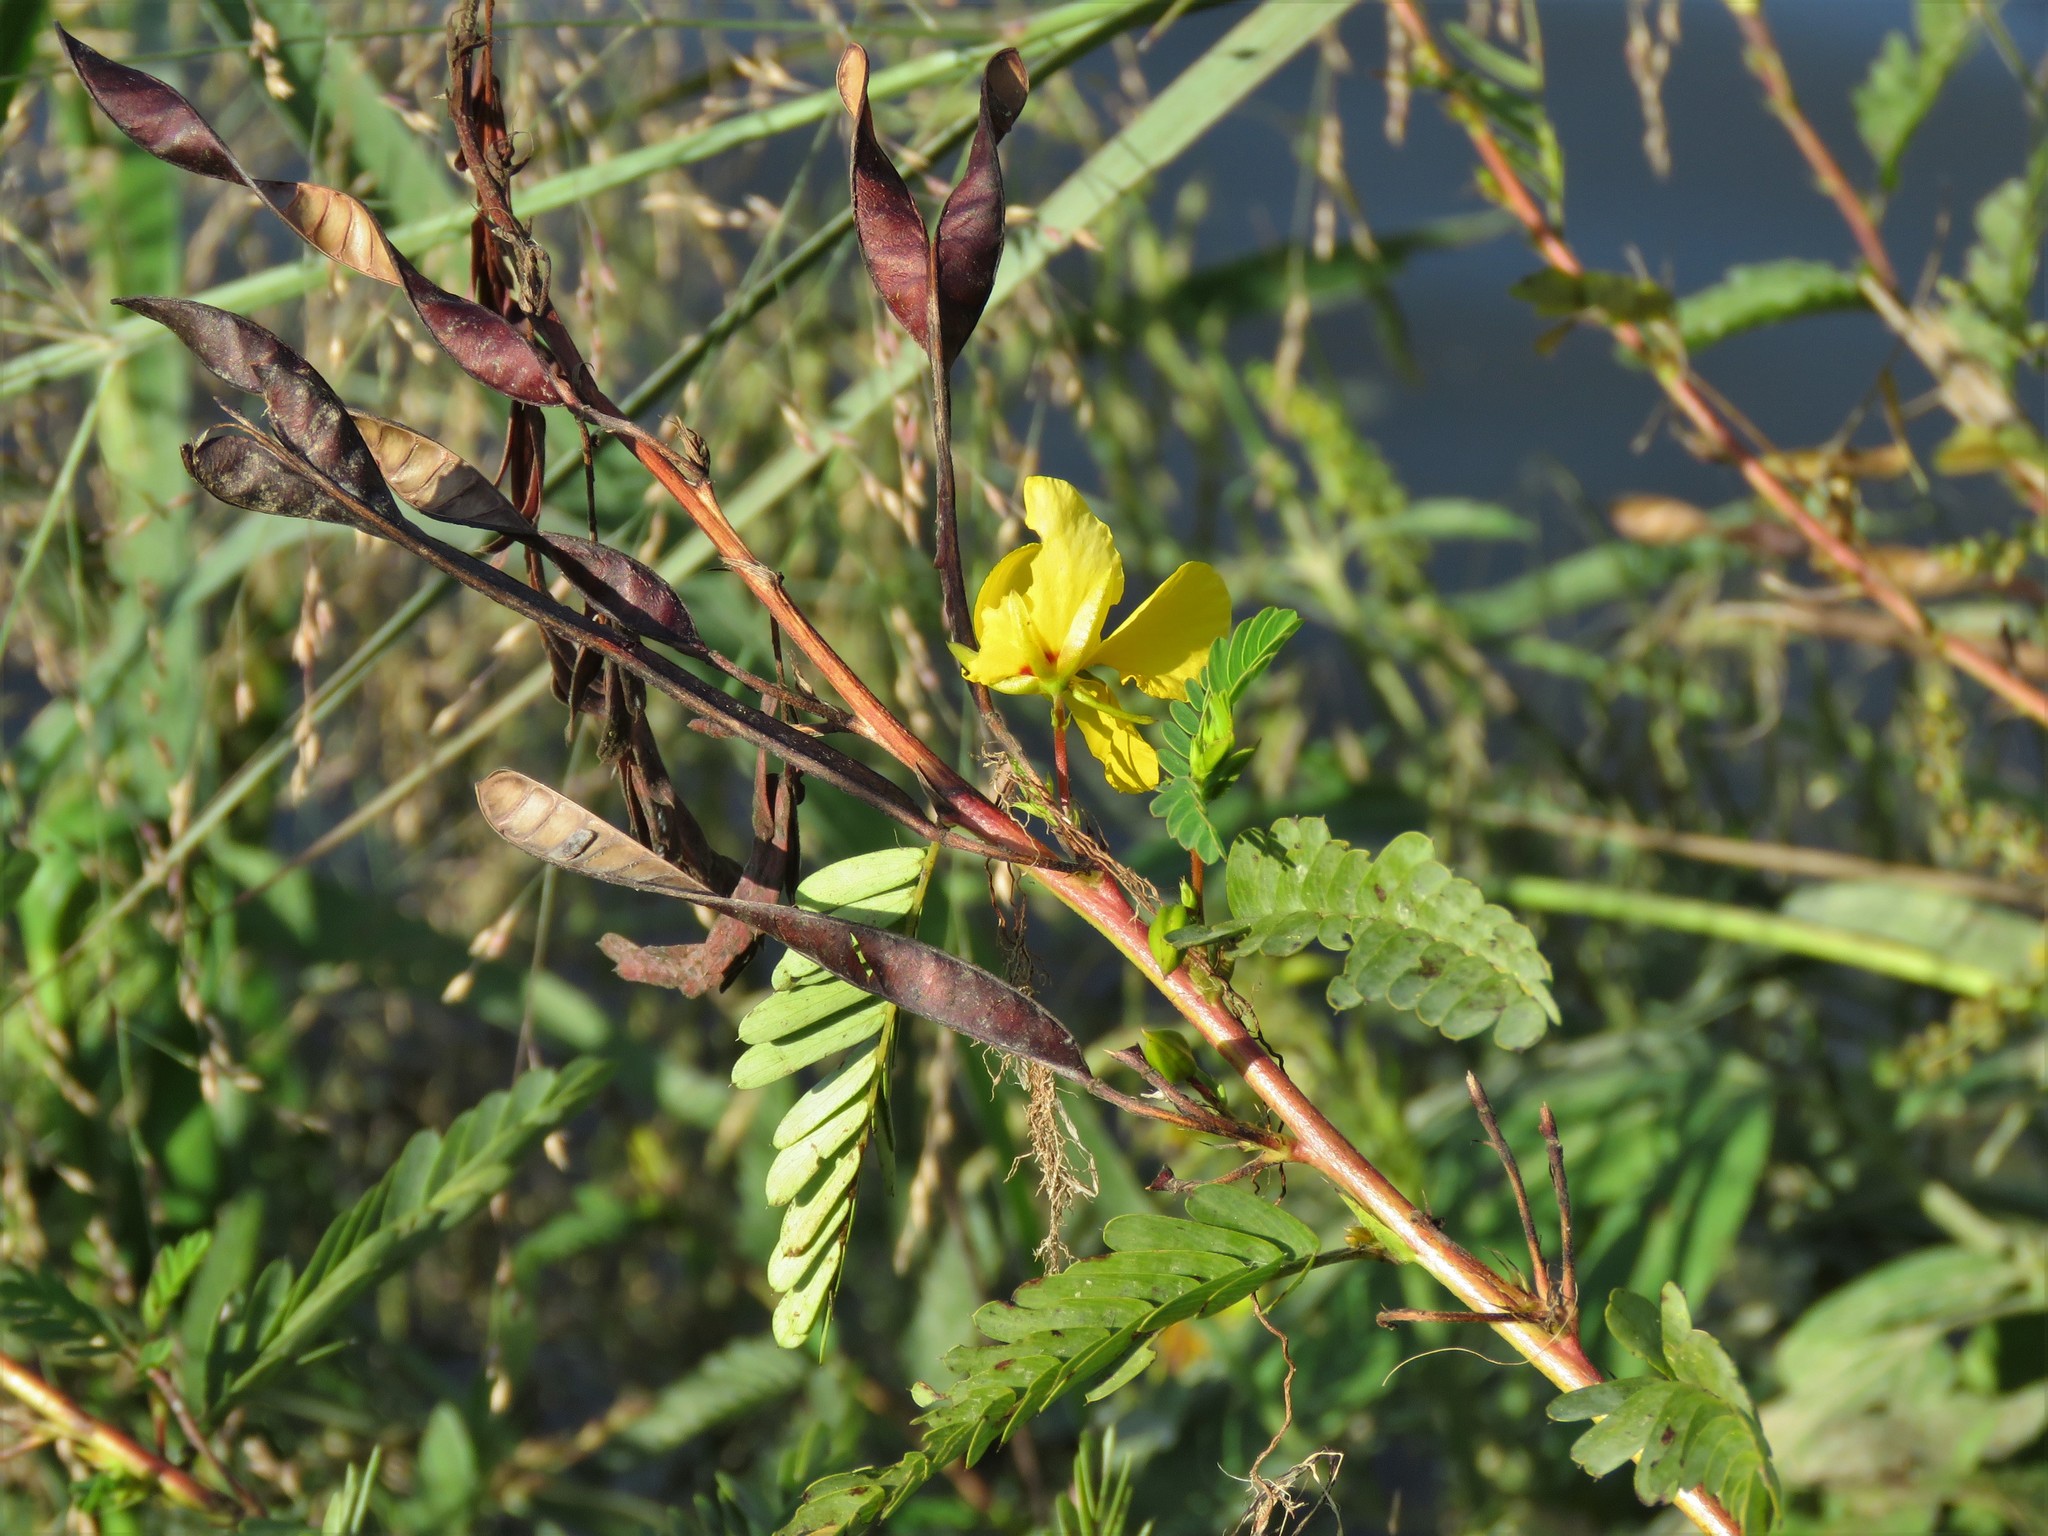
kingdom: Plantae
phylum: Tracheophyta
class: Magnoliopsida
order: Fabales
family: Fabaceae
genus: Chamaecrista
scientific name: Chamaecrista fasciculata
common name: Golden cassia
